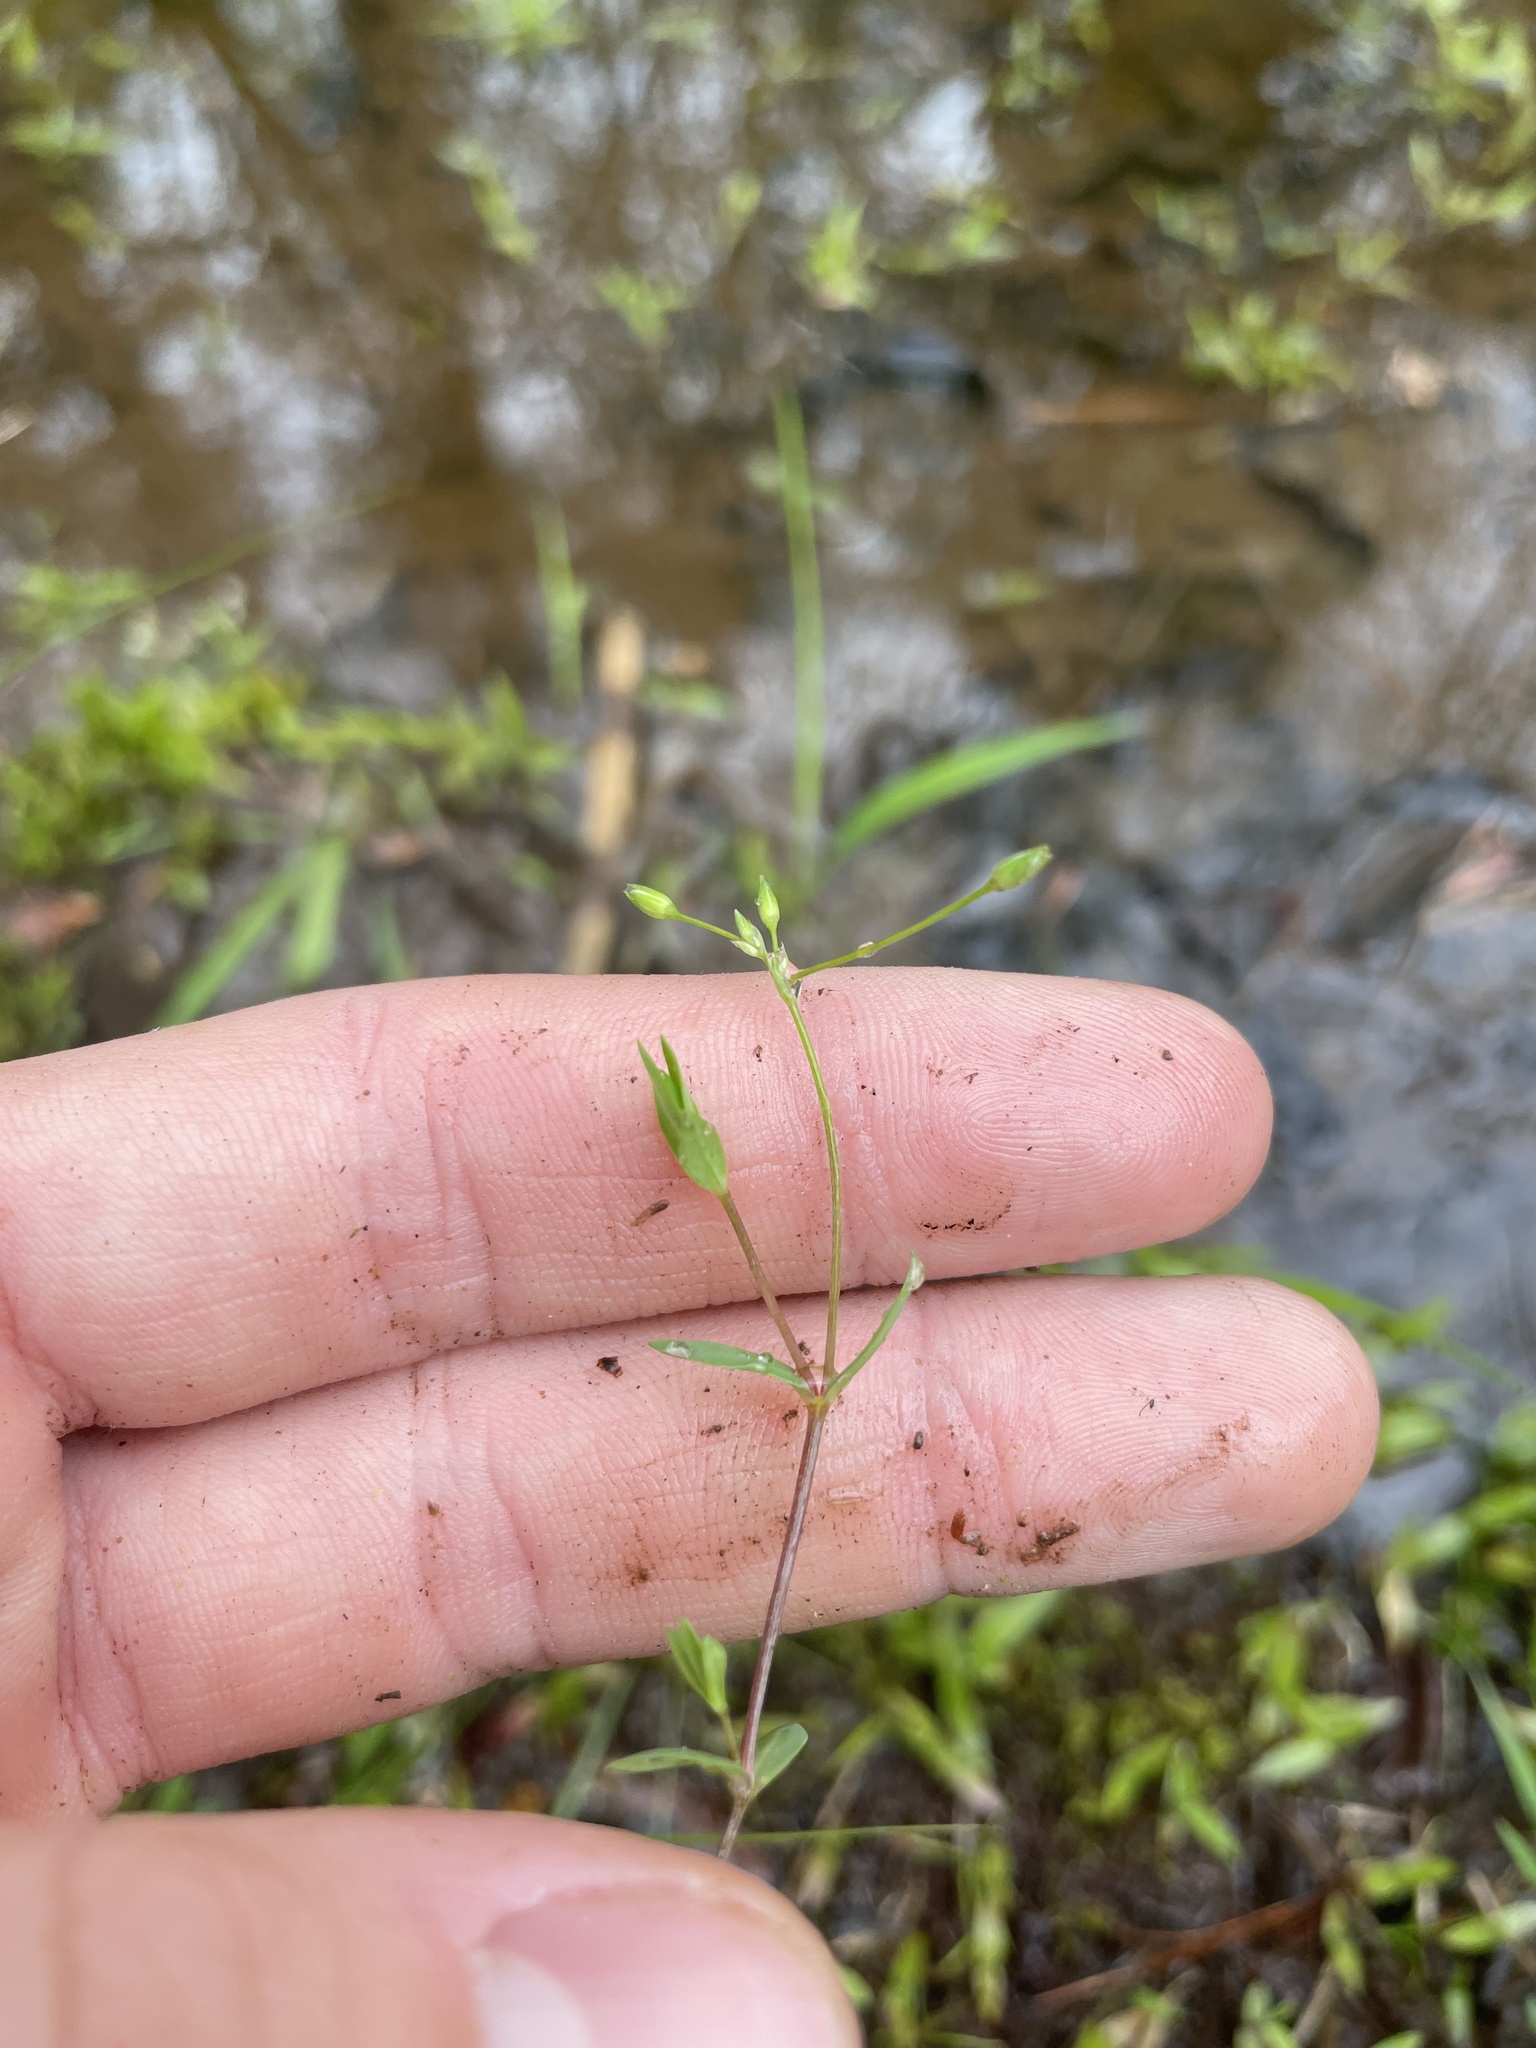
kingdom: Plantae
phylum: Tracheophyta
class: Magnoliopsida
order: Caryophyllales
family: Caryophyllaceae
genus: Stellaria
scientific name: Stellaria alsine
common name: Bog stitchwort
